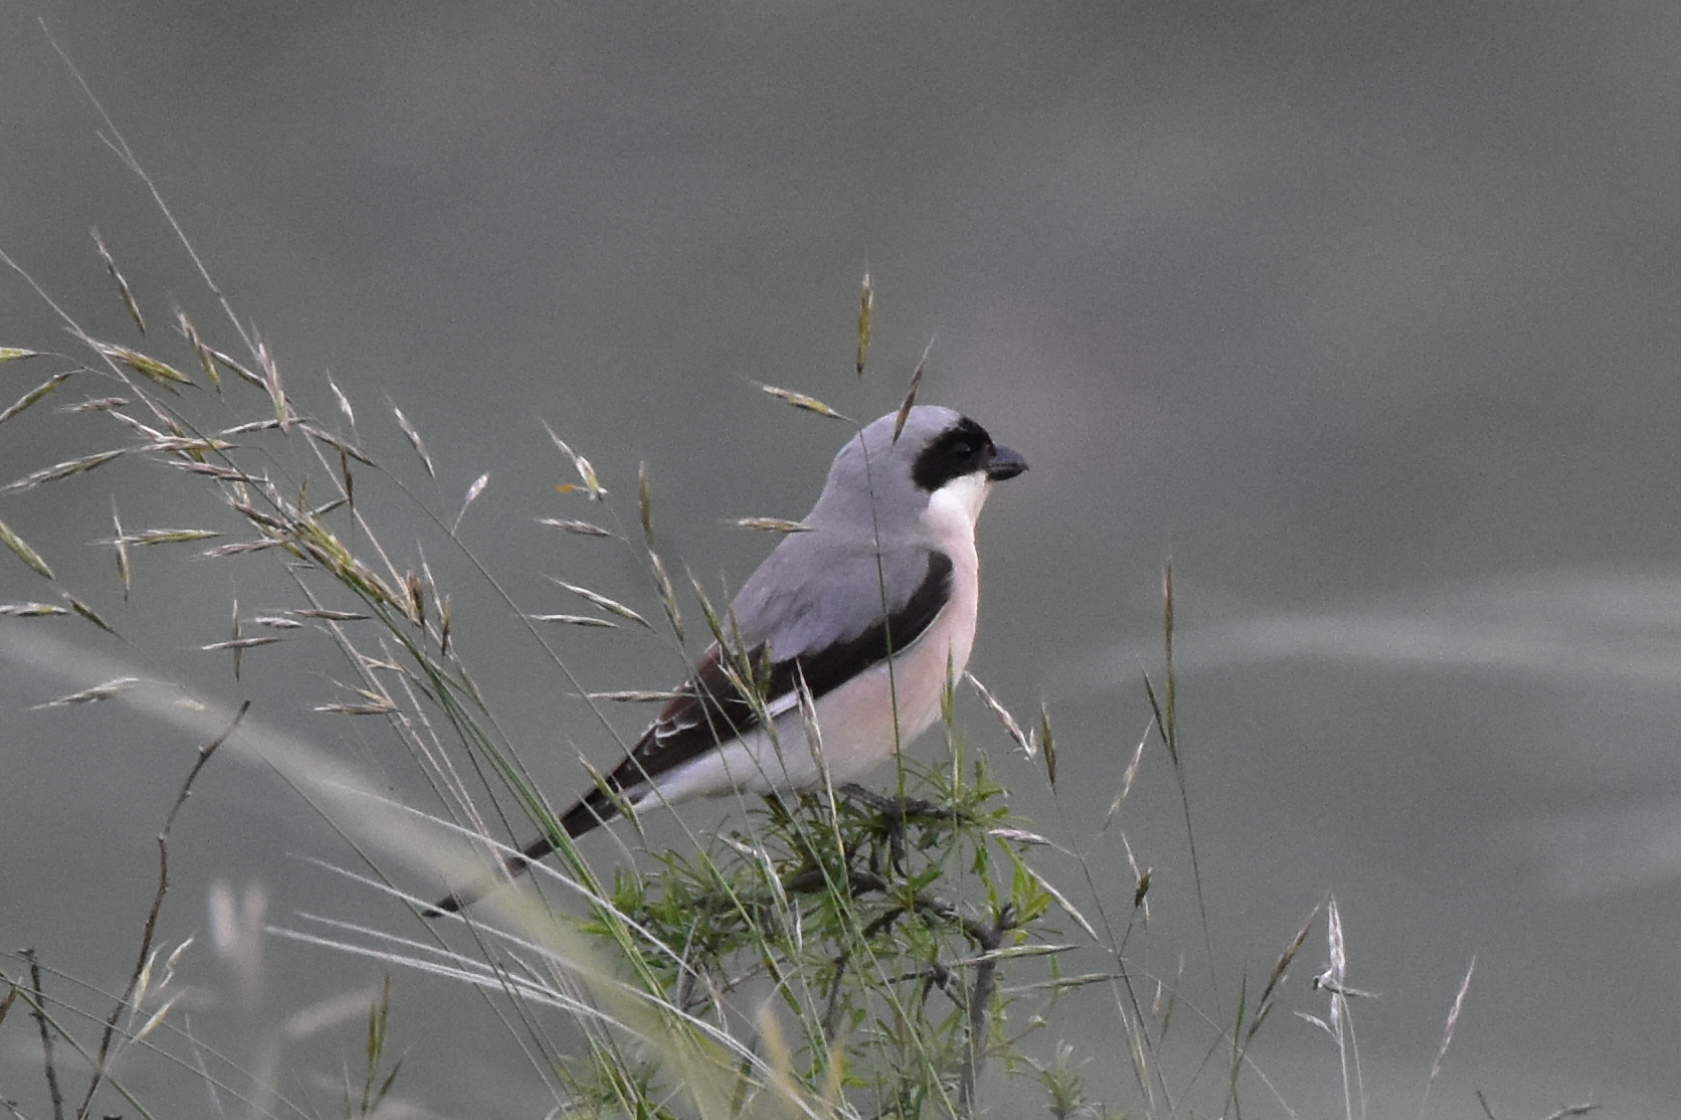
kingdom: Animalia
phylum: Chordata
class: Aves
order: Passeriformes
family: Laniidae
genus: Lanius
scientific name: Lanius minor
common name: Lesser grey shrike
